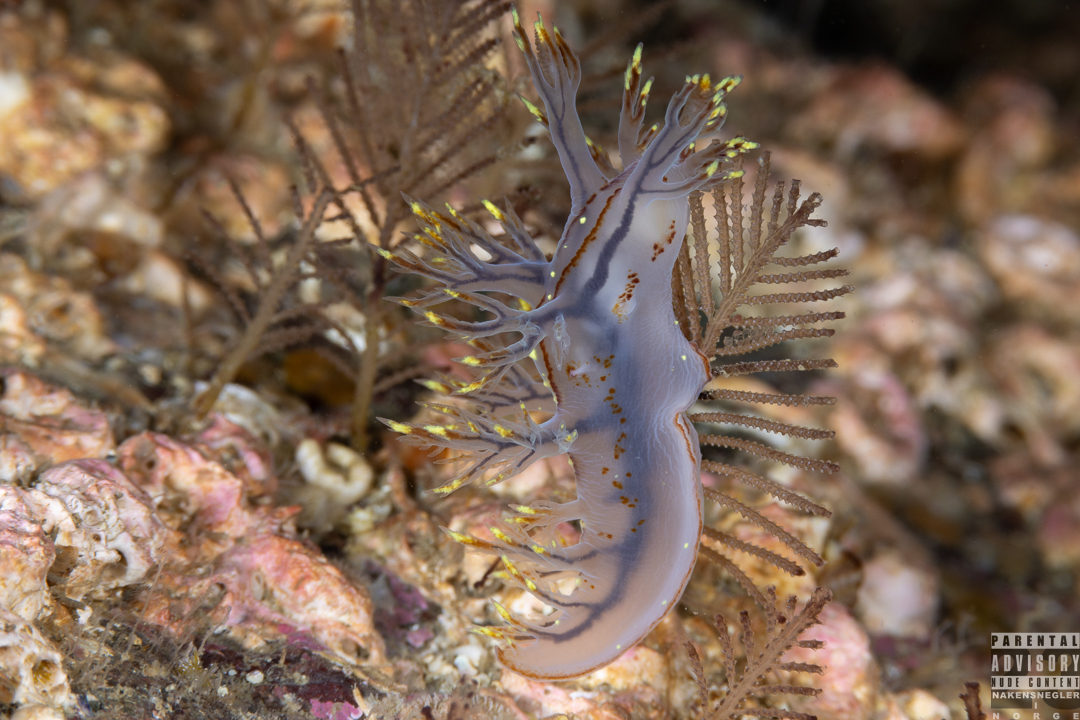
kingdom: Animalia
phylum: Mollusca
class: Gastropoda
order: Nudibranchia
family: Dendronotidae
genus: Dendronotus
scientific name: Dendronotus yrjargul
